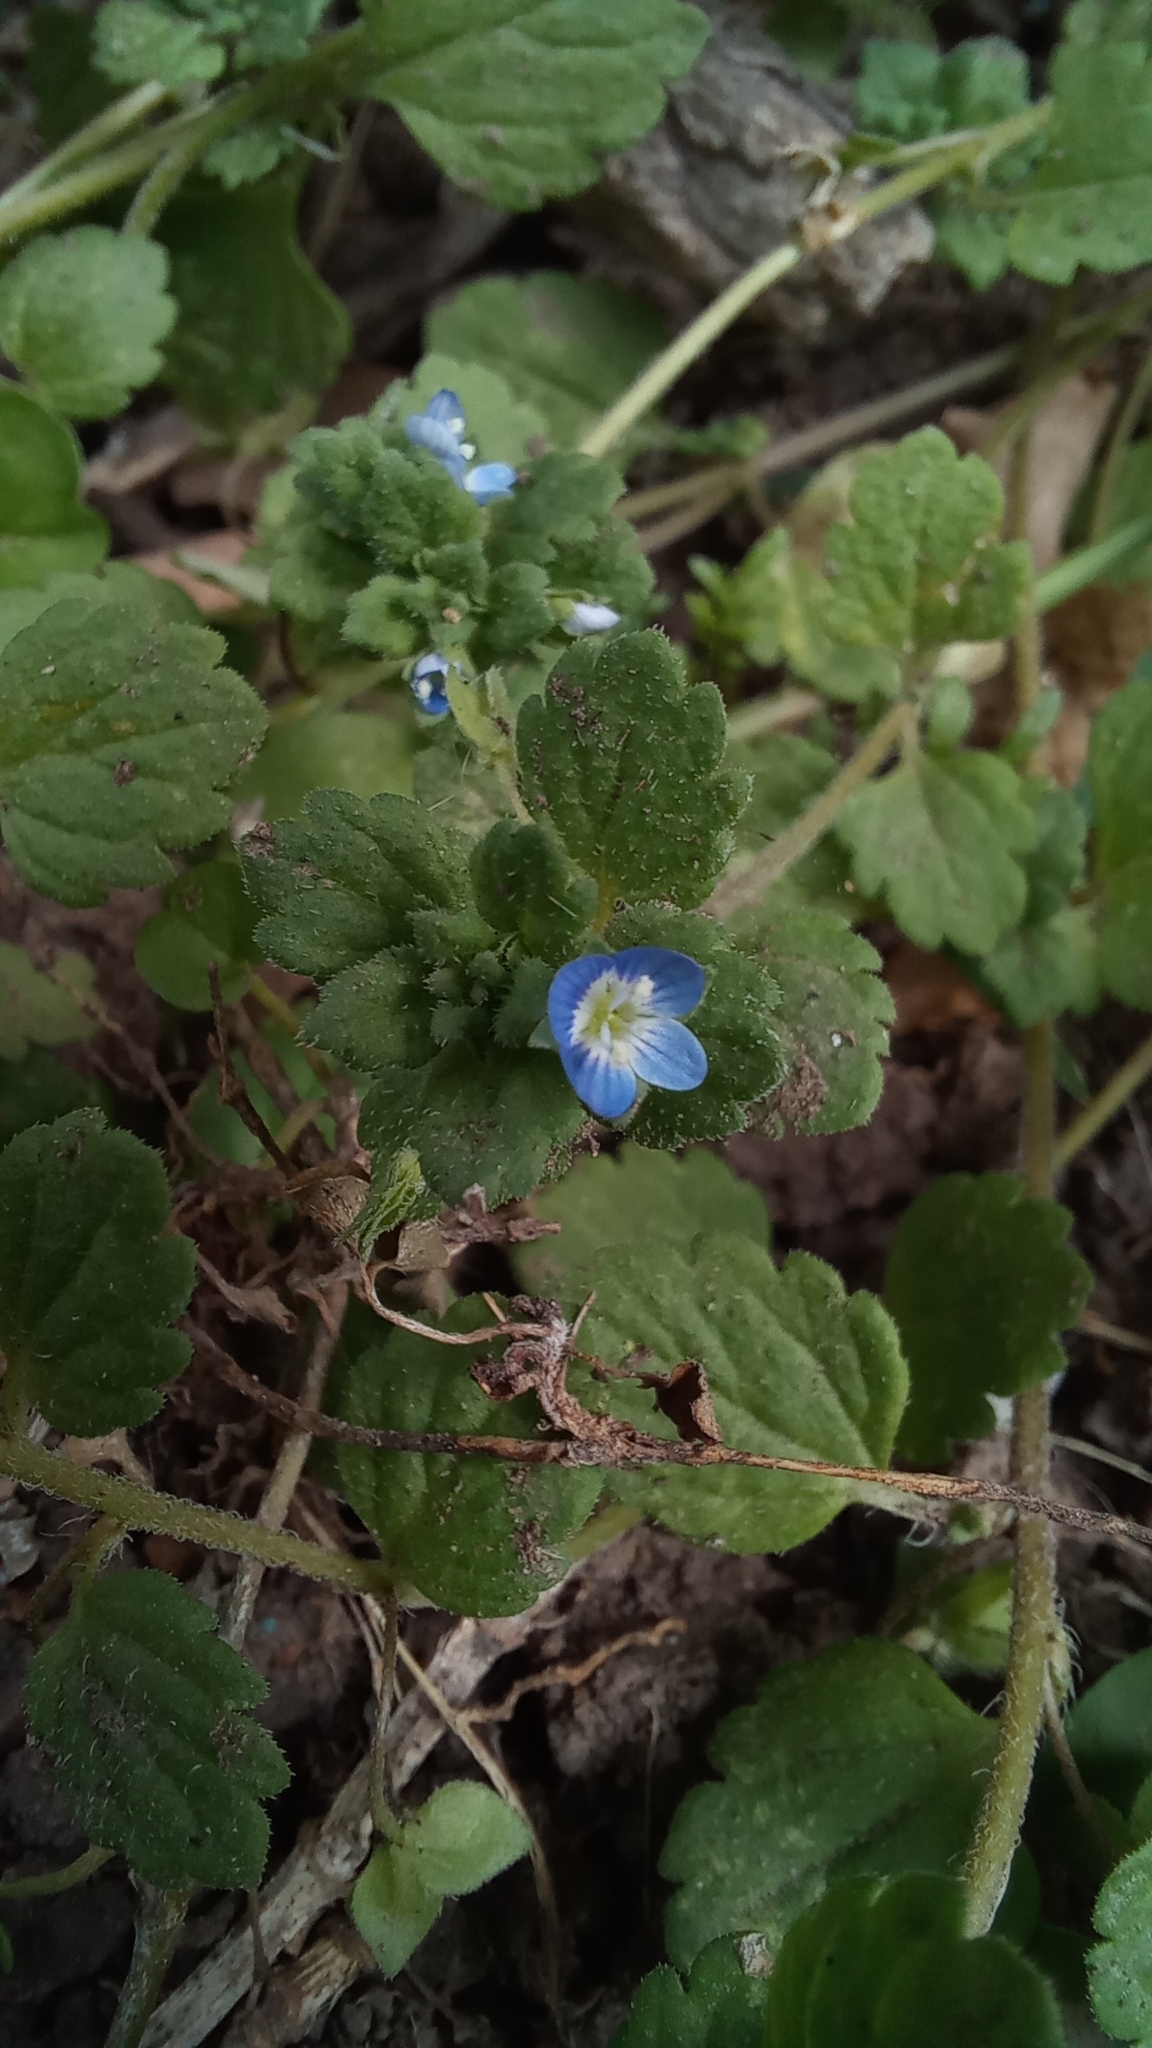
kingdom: Plantae
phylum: Tracheophyta
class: Magnoliopsida
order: Lamiales
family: Plantaginaceae
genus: Veronica
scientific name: Veronica polita
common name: Grey field-speedwell
